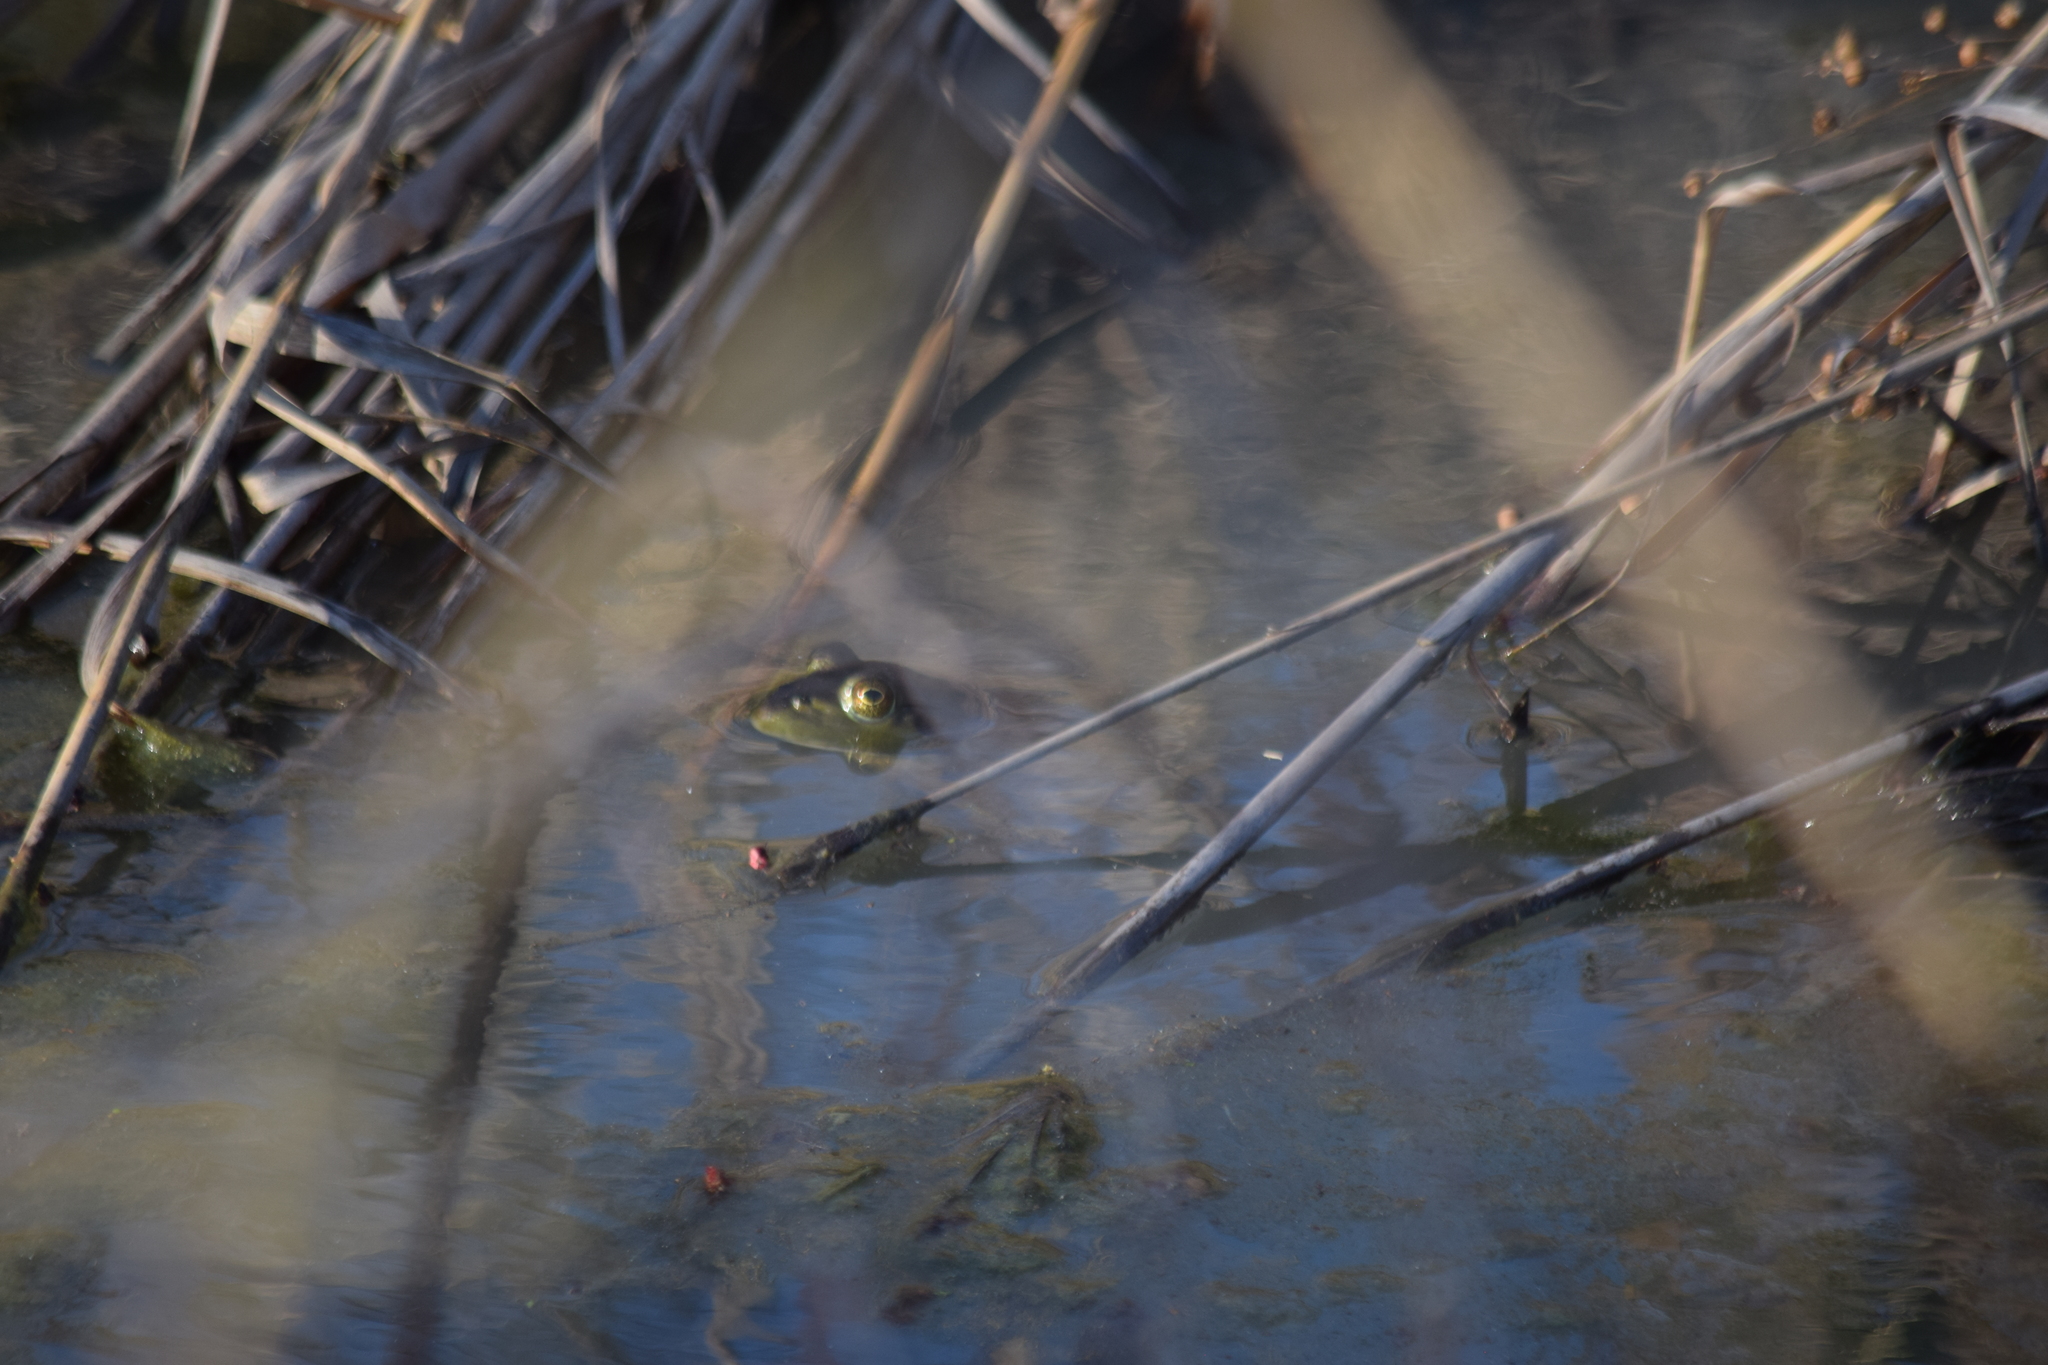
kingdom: Animalia
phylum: Chordata
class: Amphibia
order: Anura
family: Ranidae
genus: Lithobates
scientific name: Lithobates catesbeianus
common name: American bullfrog
